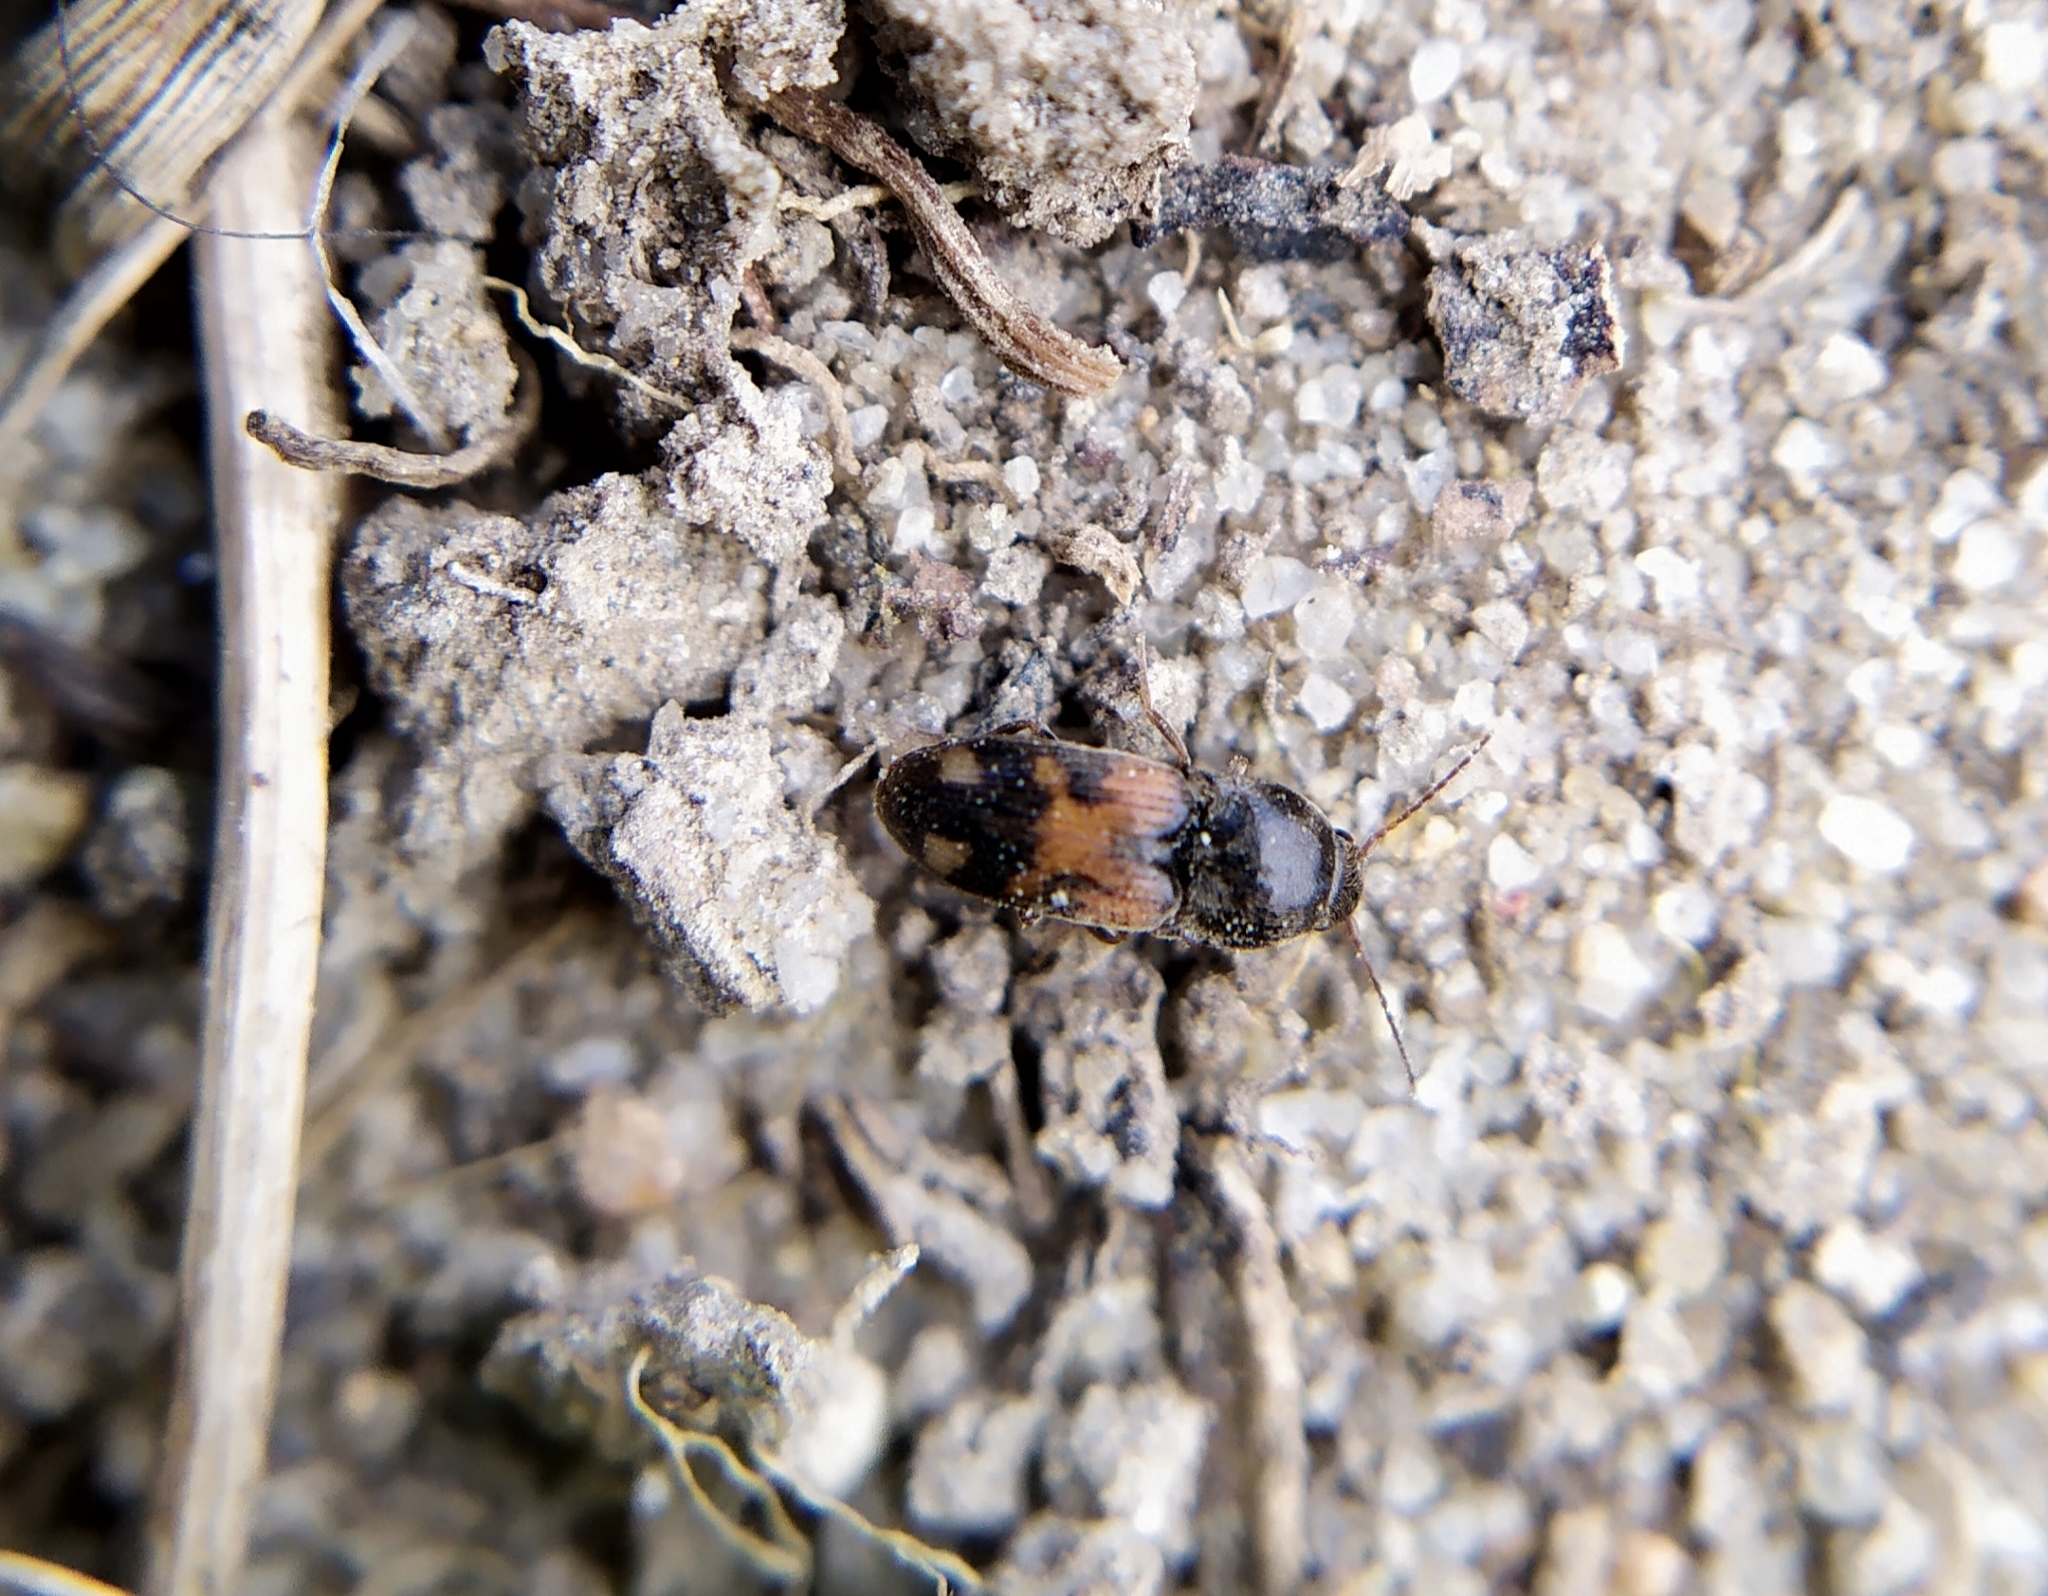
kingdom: Animalia
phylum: Arthropoda
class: Insecta
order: Coleoptera
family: Elateridae
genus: Drasterius
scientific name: Drasterius bimaculatus
